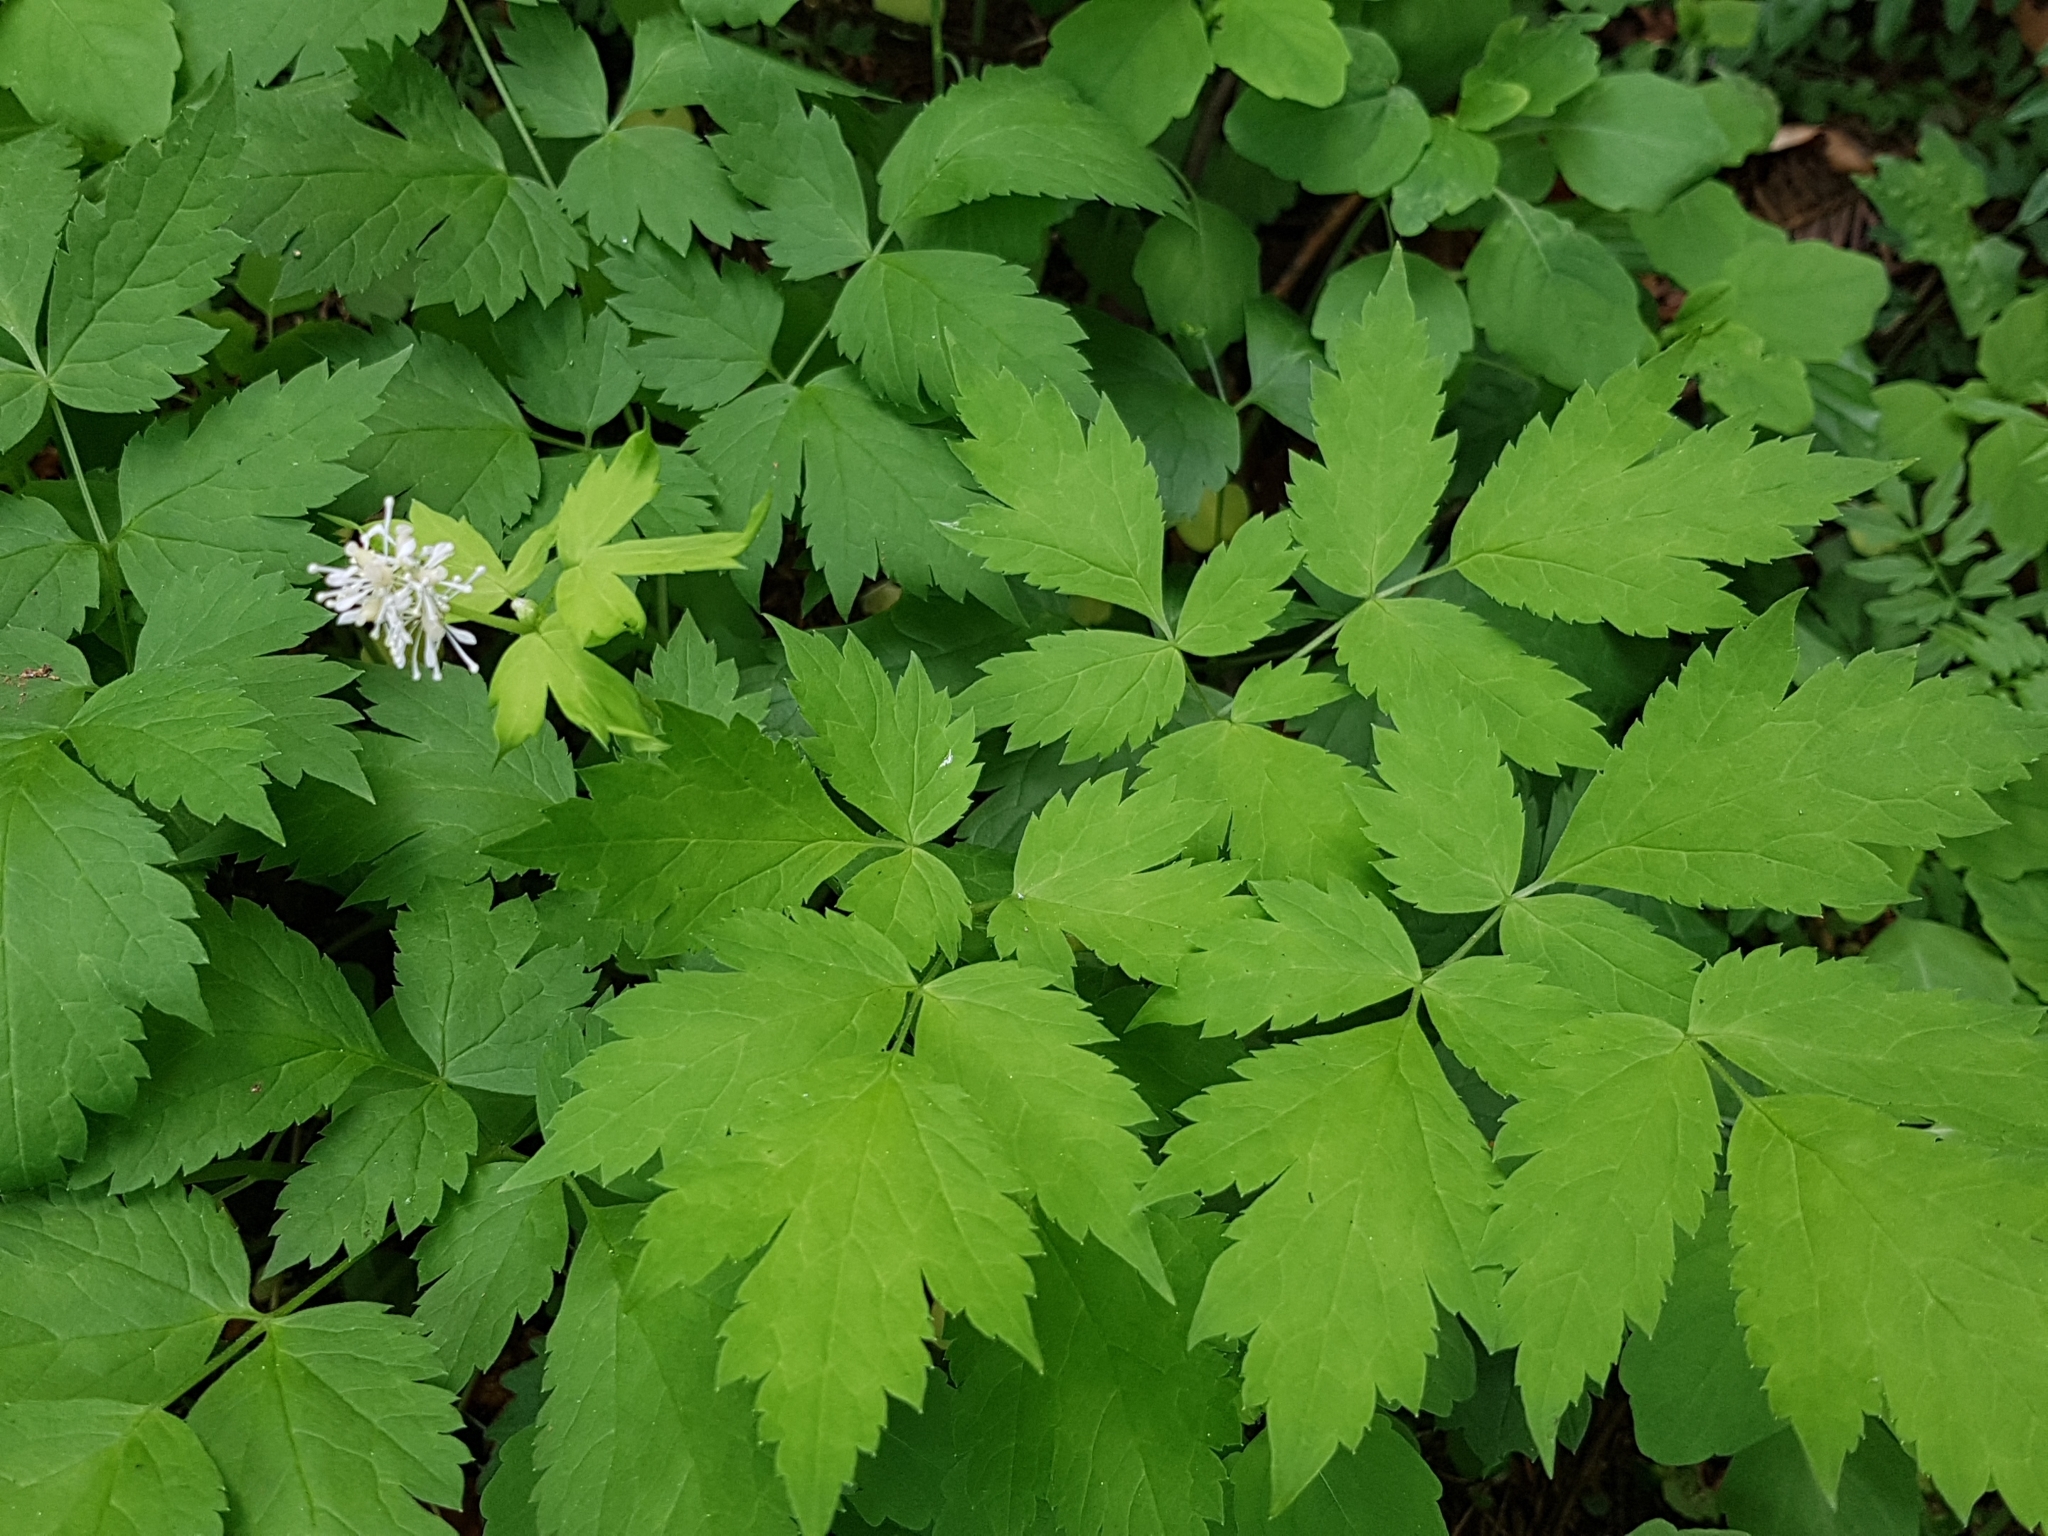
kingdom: Plantae
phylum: Tracheophyta
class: Magnoliopsida
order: Ranunculales
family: Ranunculaceae
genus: Actaea
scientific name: Actaea spicata
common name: Baneberry
